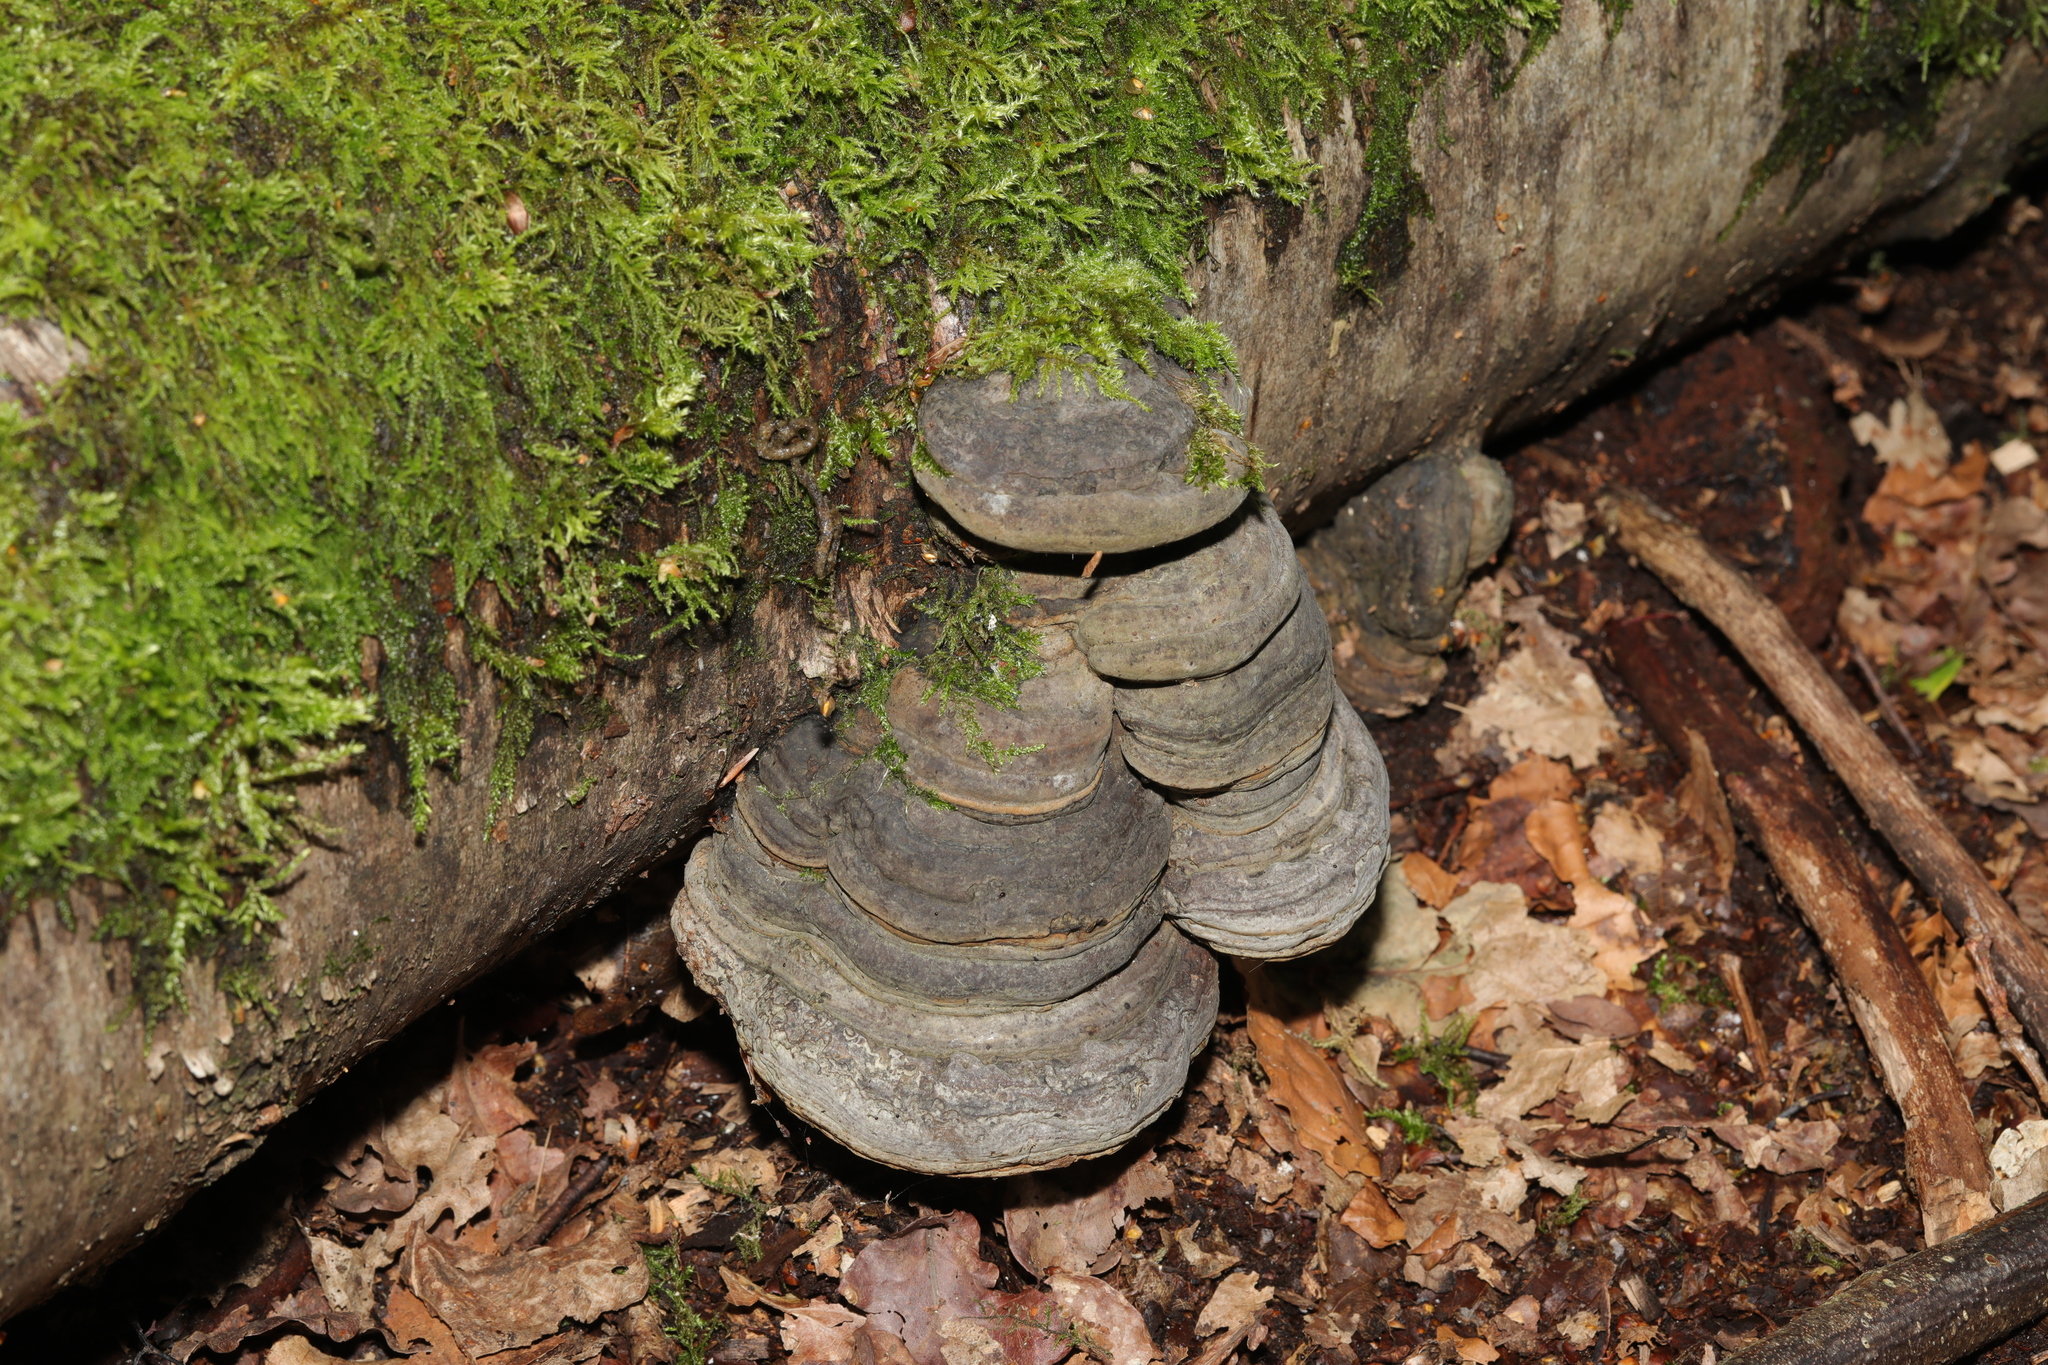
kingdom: Fungi
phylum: Basidiomycota
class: Agaricomycetes
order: Polyporales
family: Polyporaceae
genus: Fomes
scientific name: Fomes fomentarius
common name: Hoof fungus
